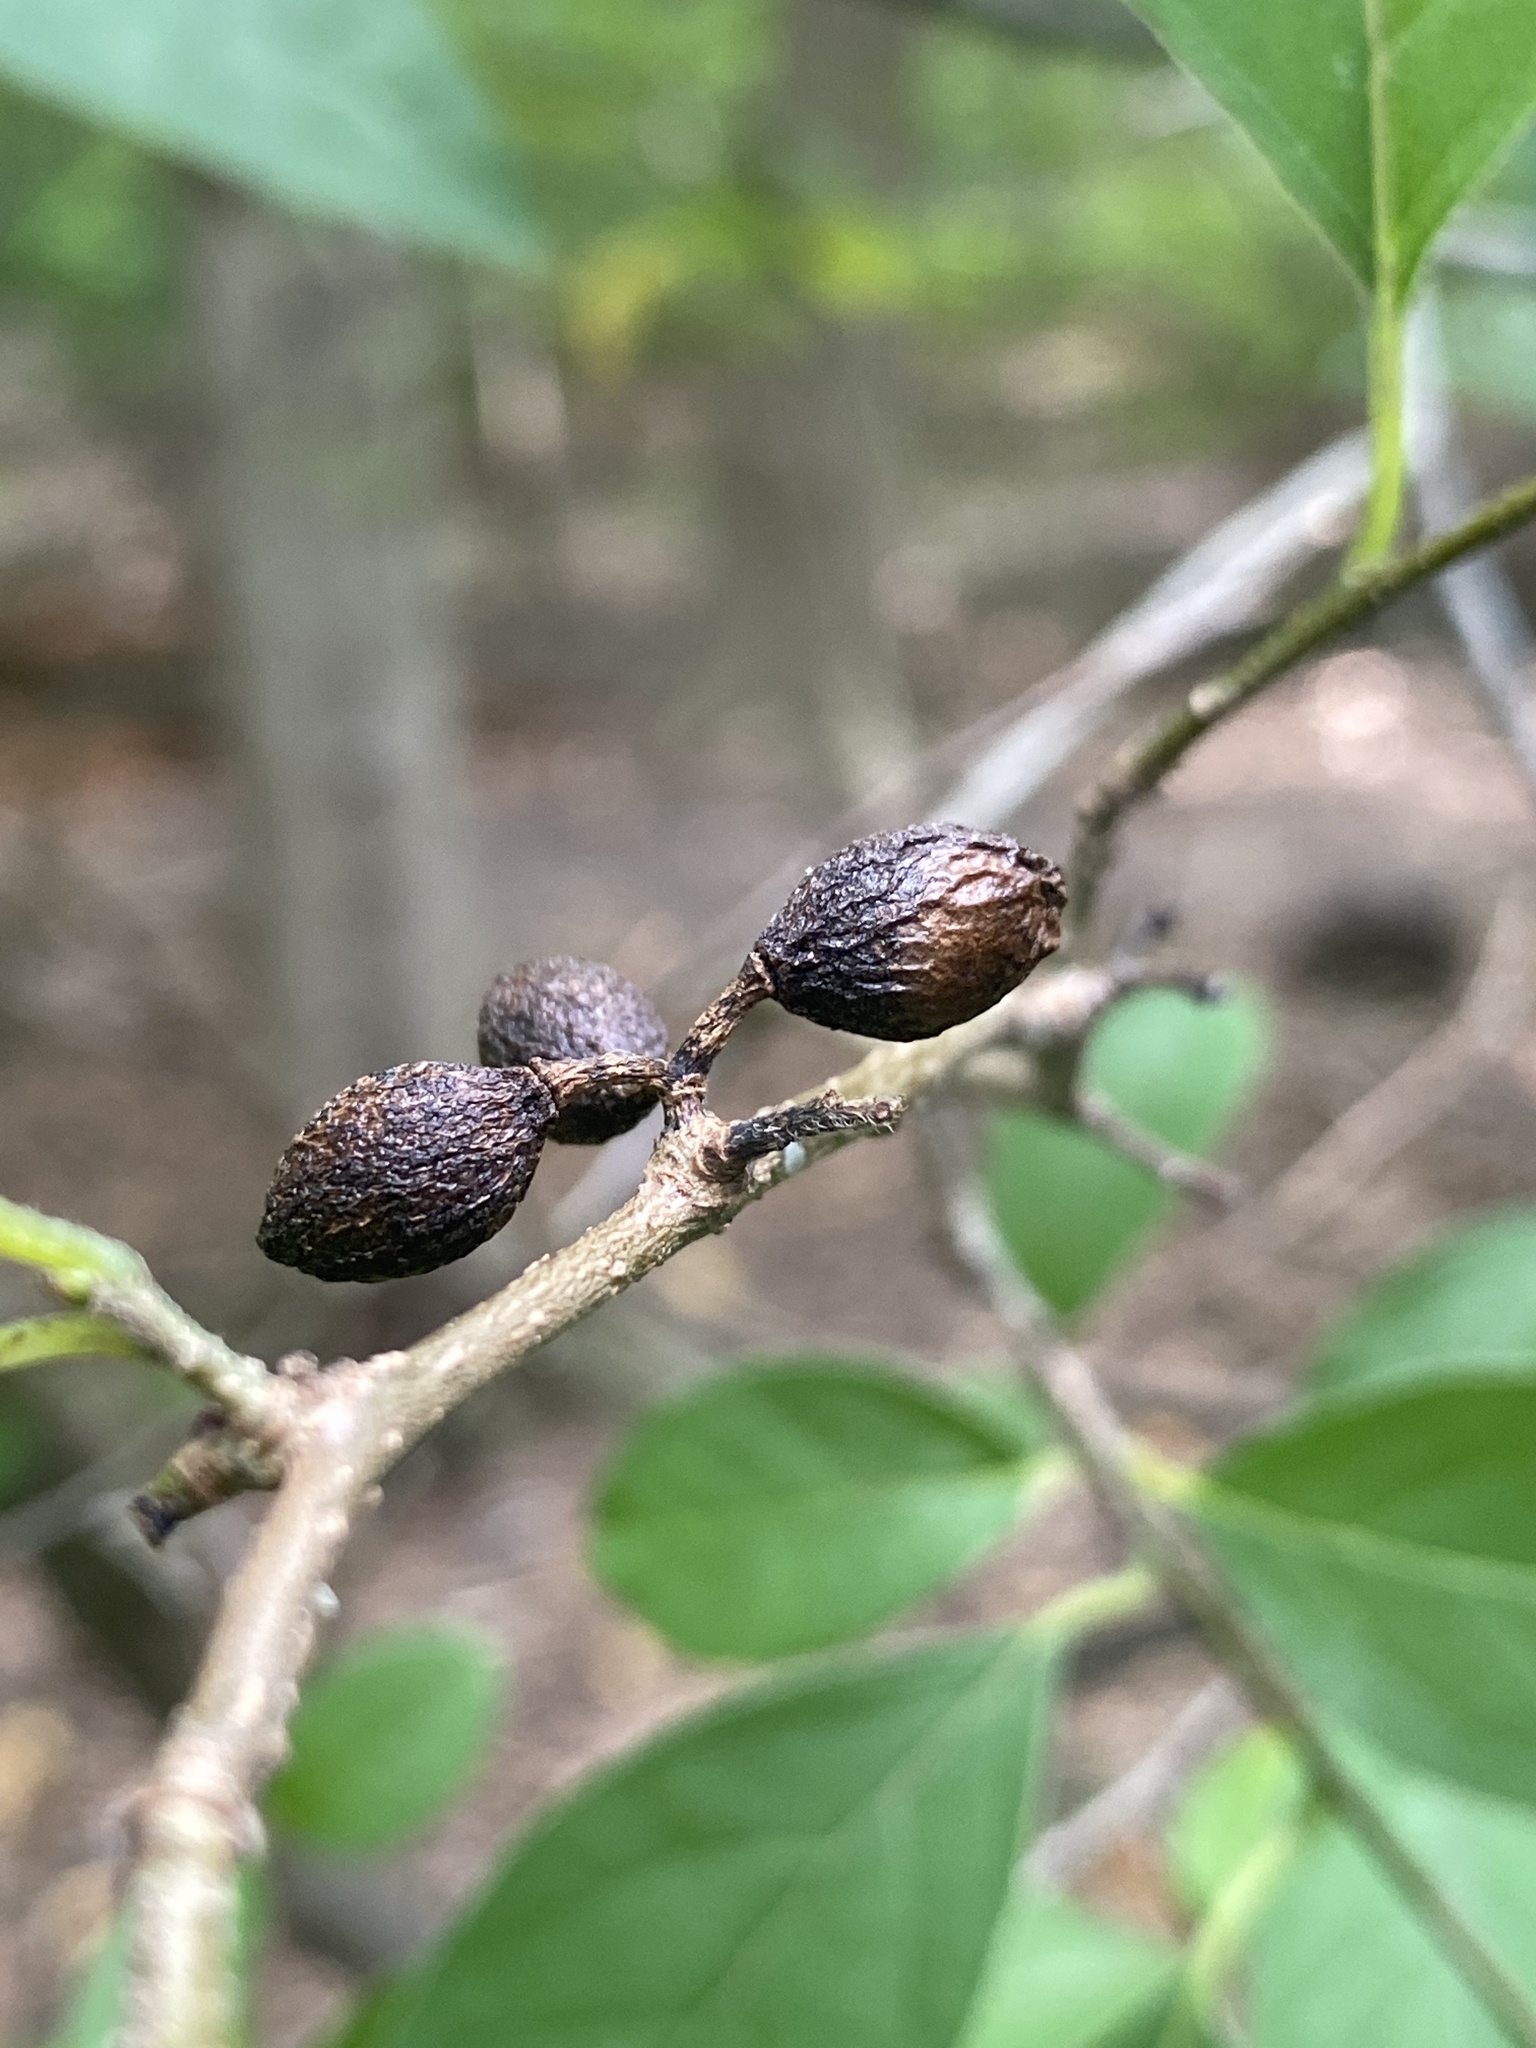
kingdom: Plantae
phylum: Tracheophyta
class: Magnoliopsida
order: Laurales
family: Lauraceae
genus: Lindera
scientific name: Lindera benzoin
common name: Spicebush
